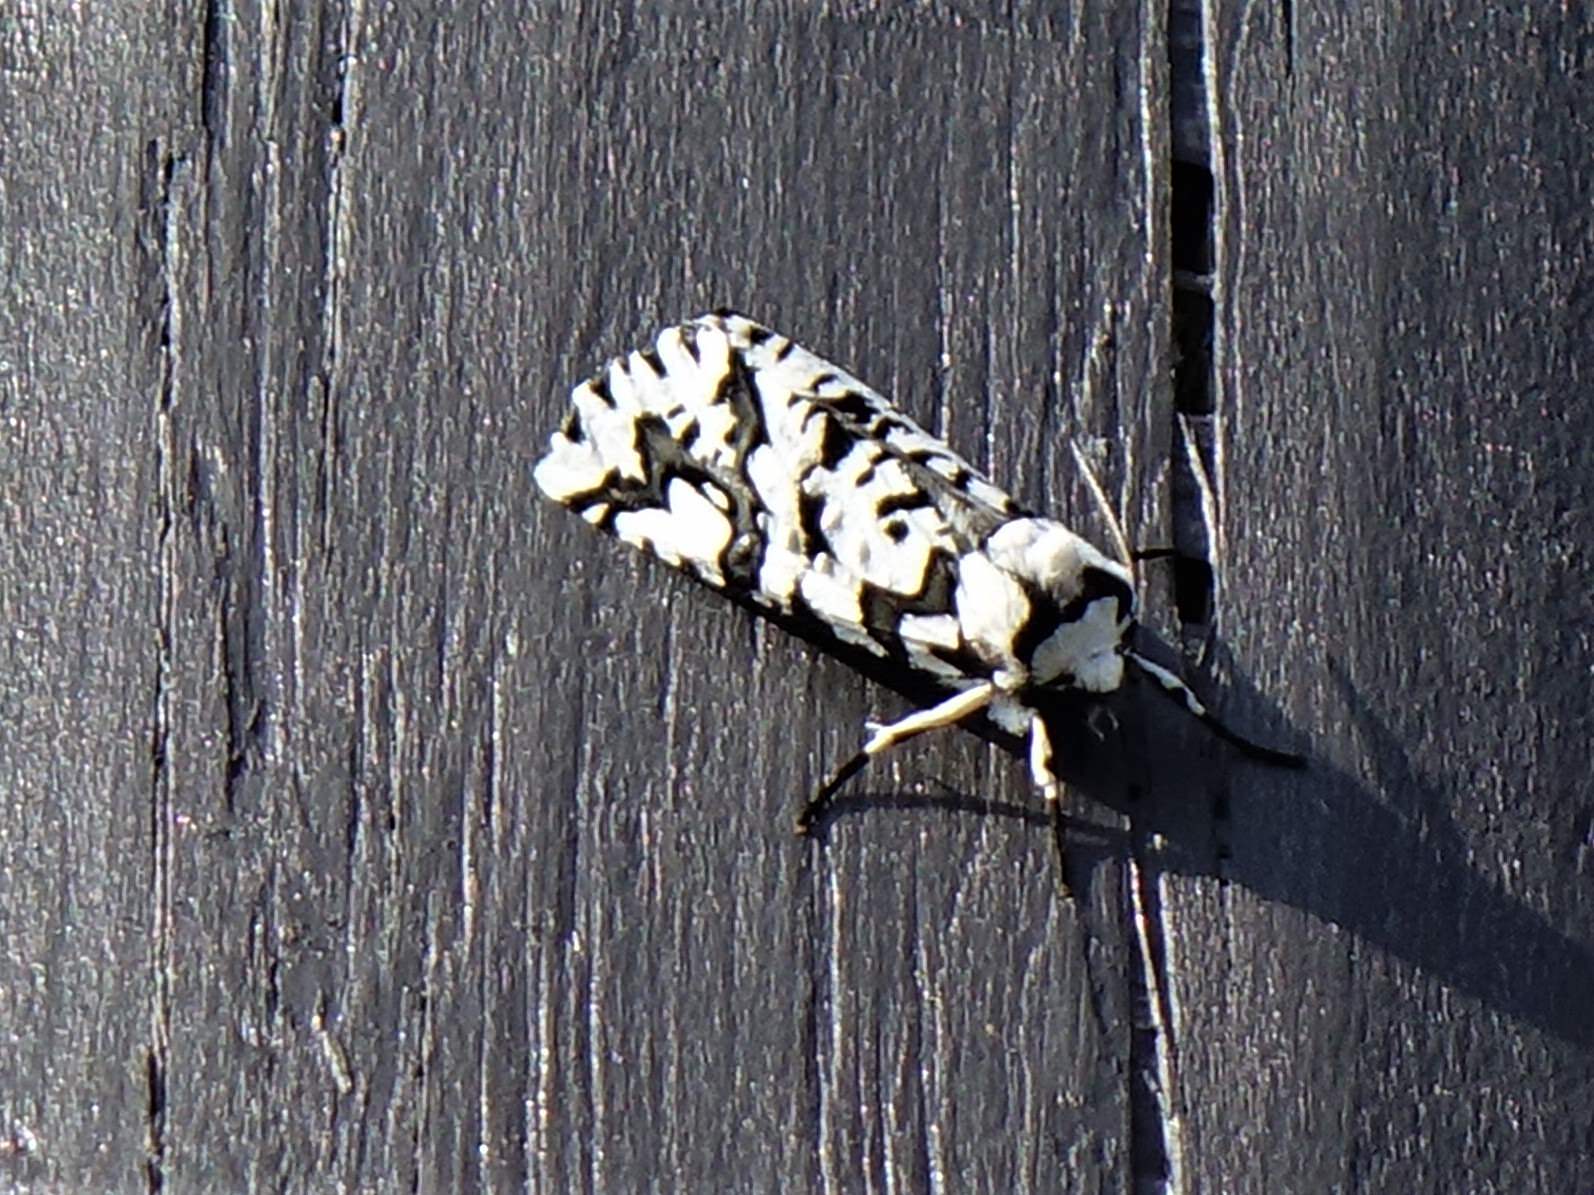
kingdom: Animalia
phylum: Arthropoda
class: Insecta
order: Lepidoptera
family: Geometridae
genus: Declana
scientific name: Declana
